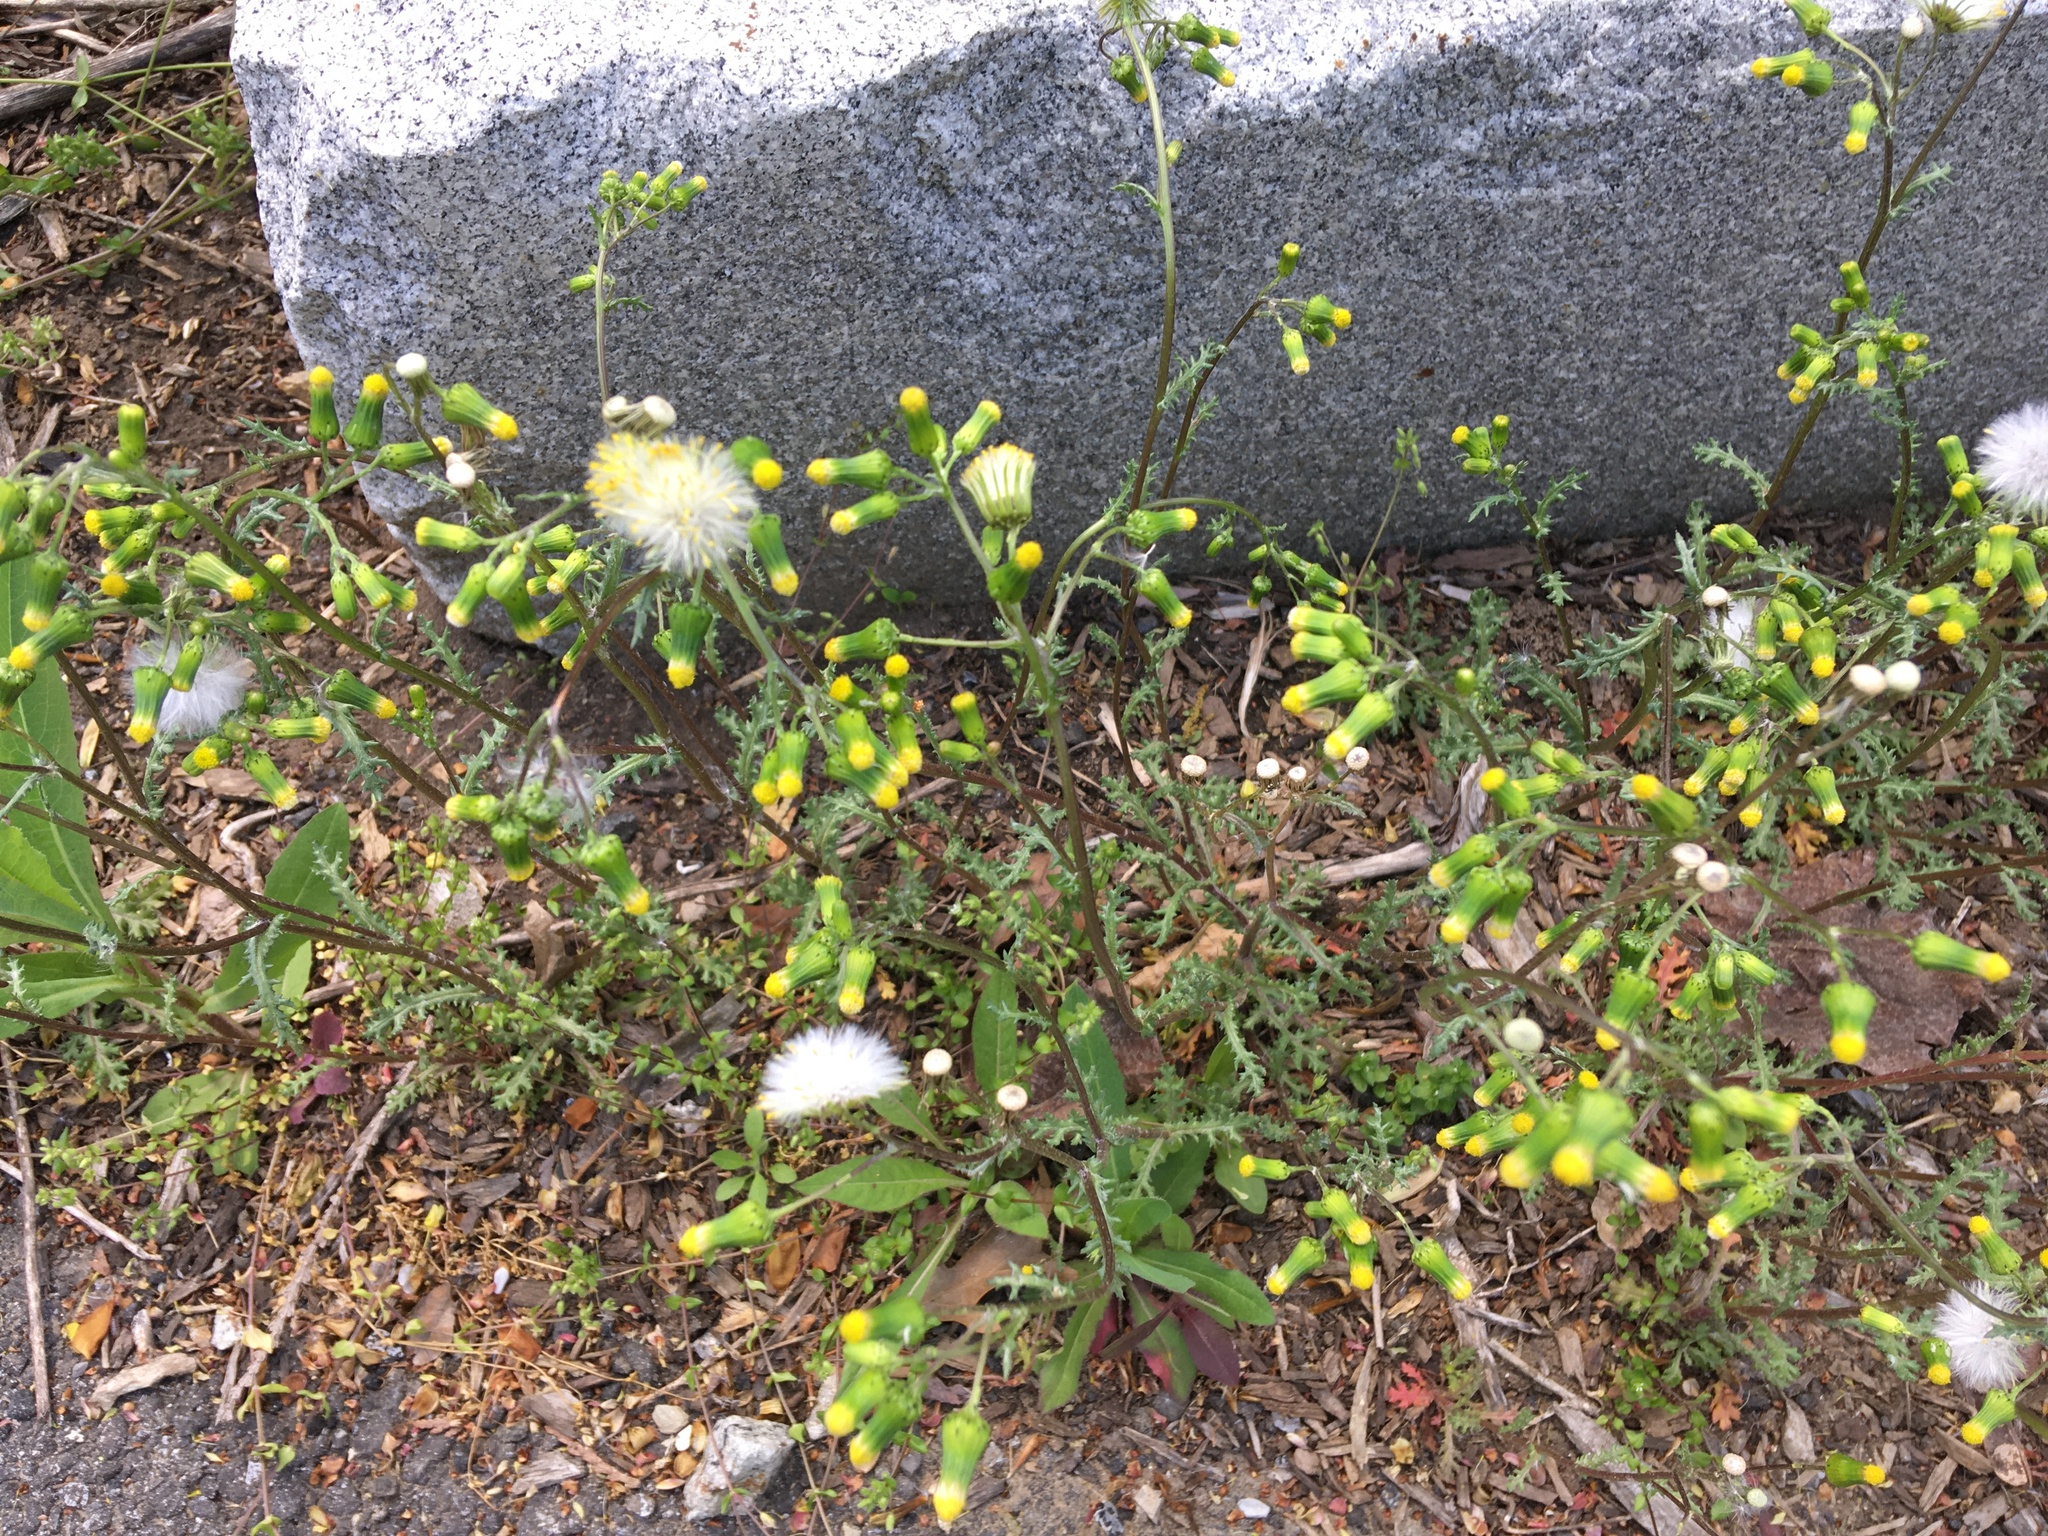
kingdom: Plantae
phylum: Tracheophyta
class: Magnoliopsida
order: Asterales
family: Asteraceae
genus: Senecio
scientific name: Senecio vulgaris
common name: Old-man-in-the-spring
